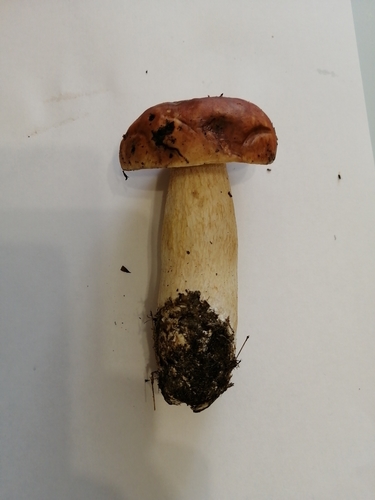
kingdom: Fungi
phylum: Basidiomycota
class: Agaricomycetes
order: Boletales
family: Boletaceae
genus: Boletus
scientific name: Boletus edulis
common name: Cep
